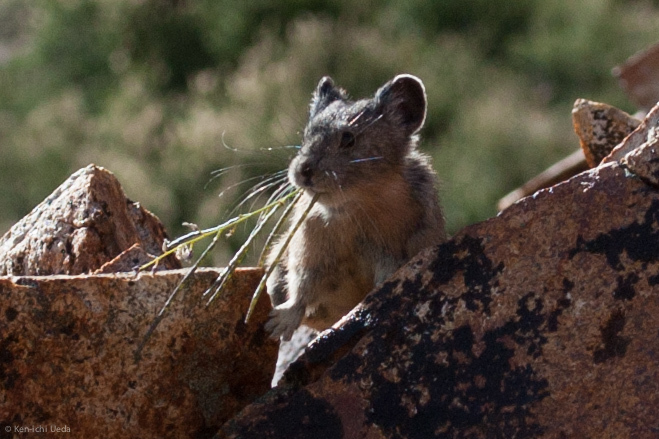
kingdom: Animalia
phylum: Chordata
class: Mammalia
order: Lagomorpha
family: Ochotonidae
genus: Ochotona
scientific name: Ochotona princeps
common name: American pika
